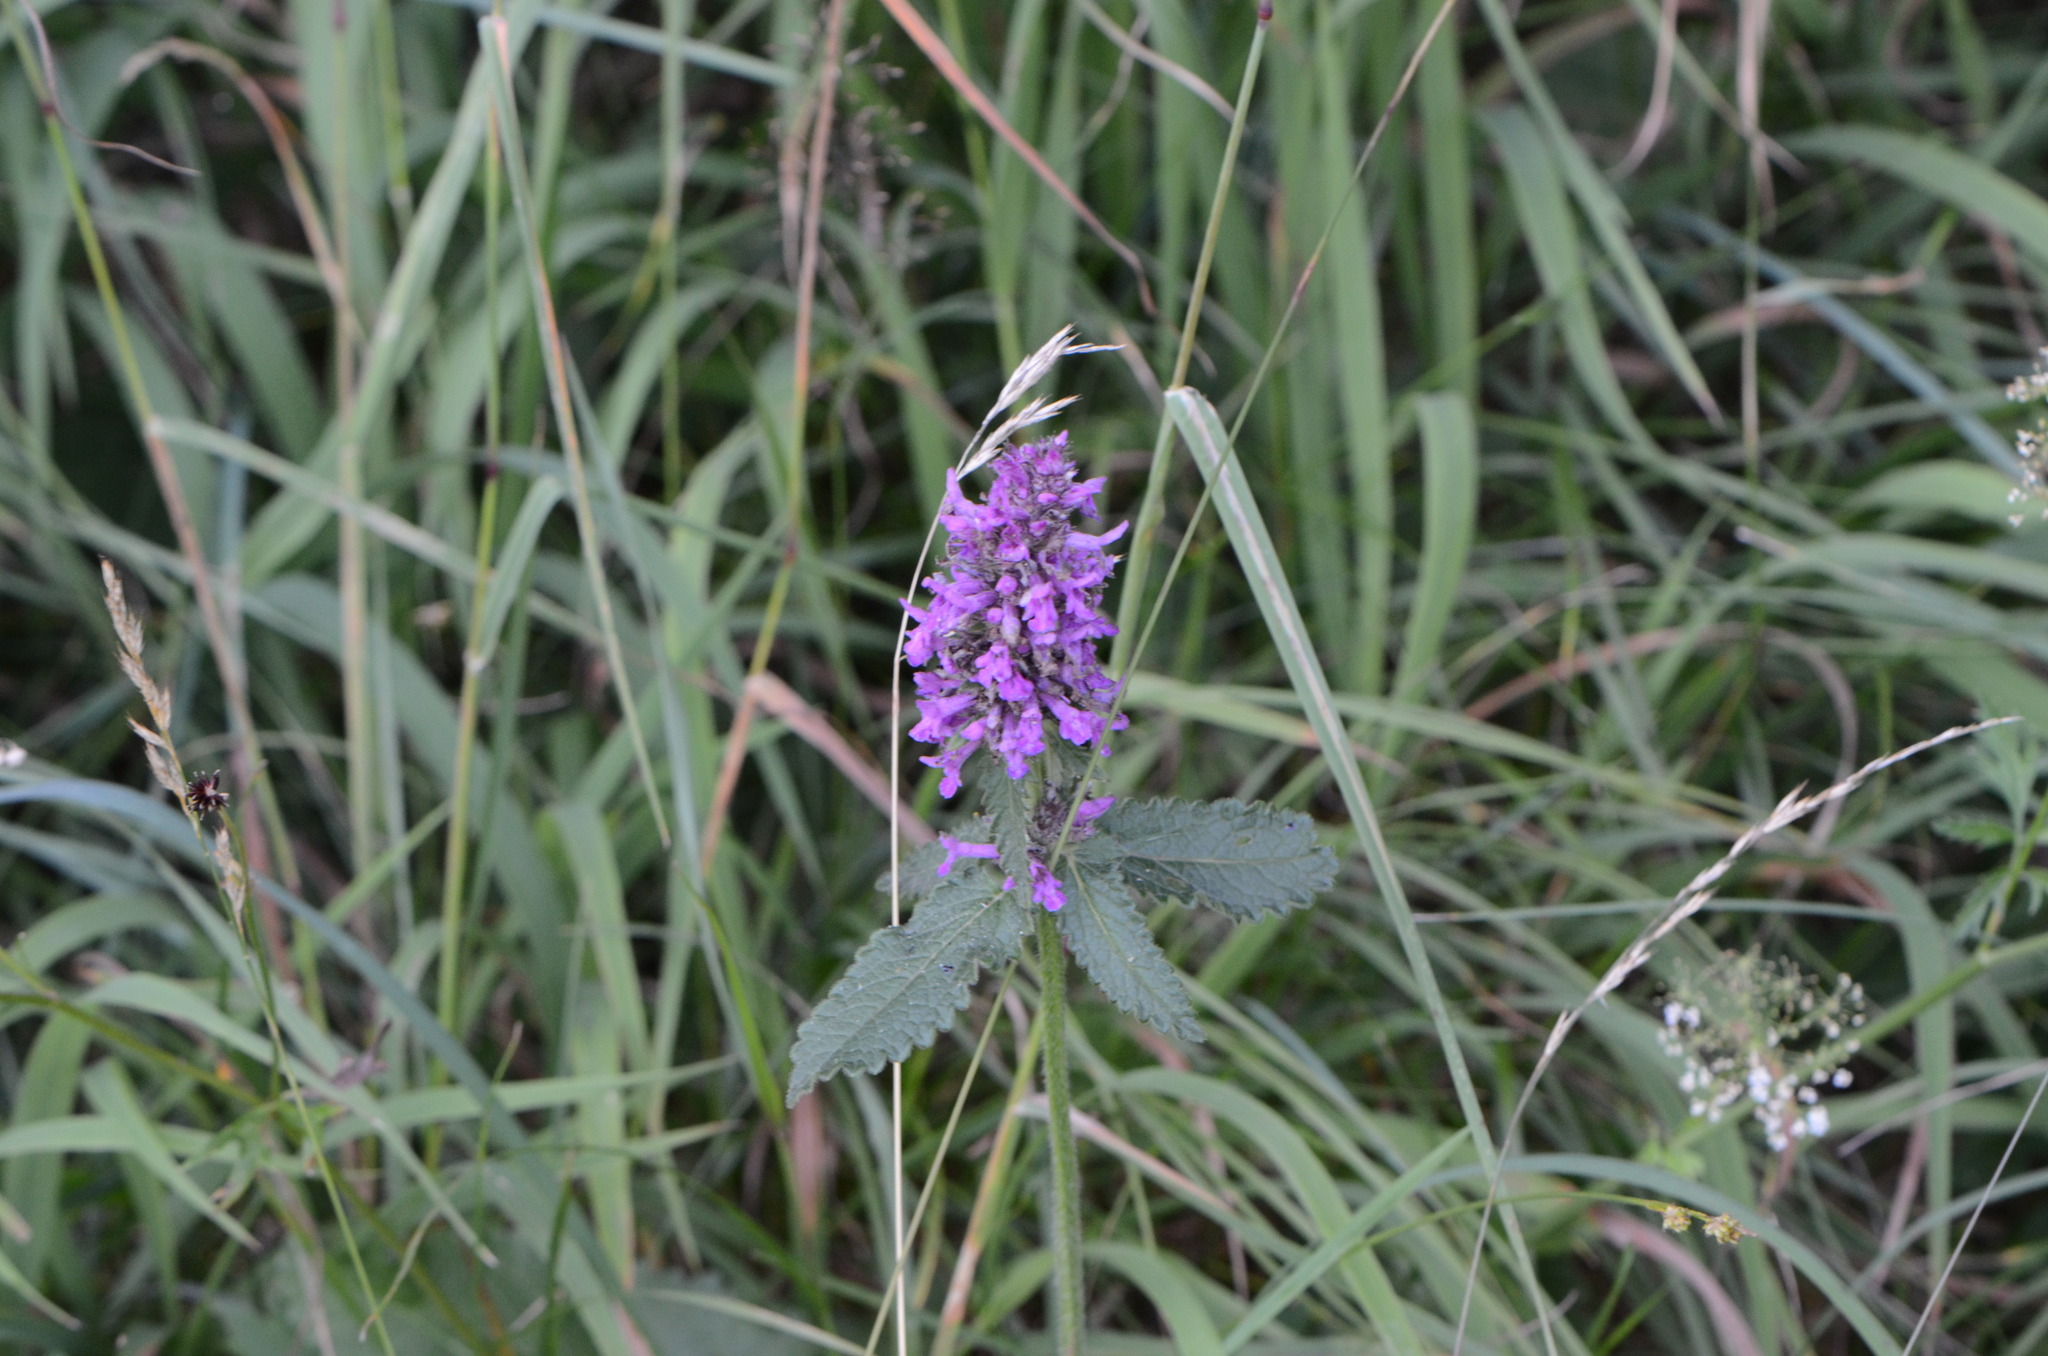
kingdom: Plantae
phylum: Tracheophyta
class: Magnoliopsida
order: Lamiales
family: Lamiaceae
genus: Betonica
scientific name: Betonica officinalis
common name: Bishop's-wort
